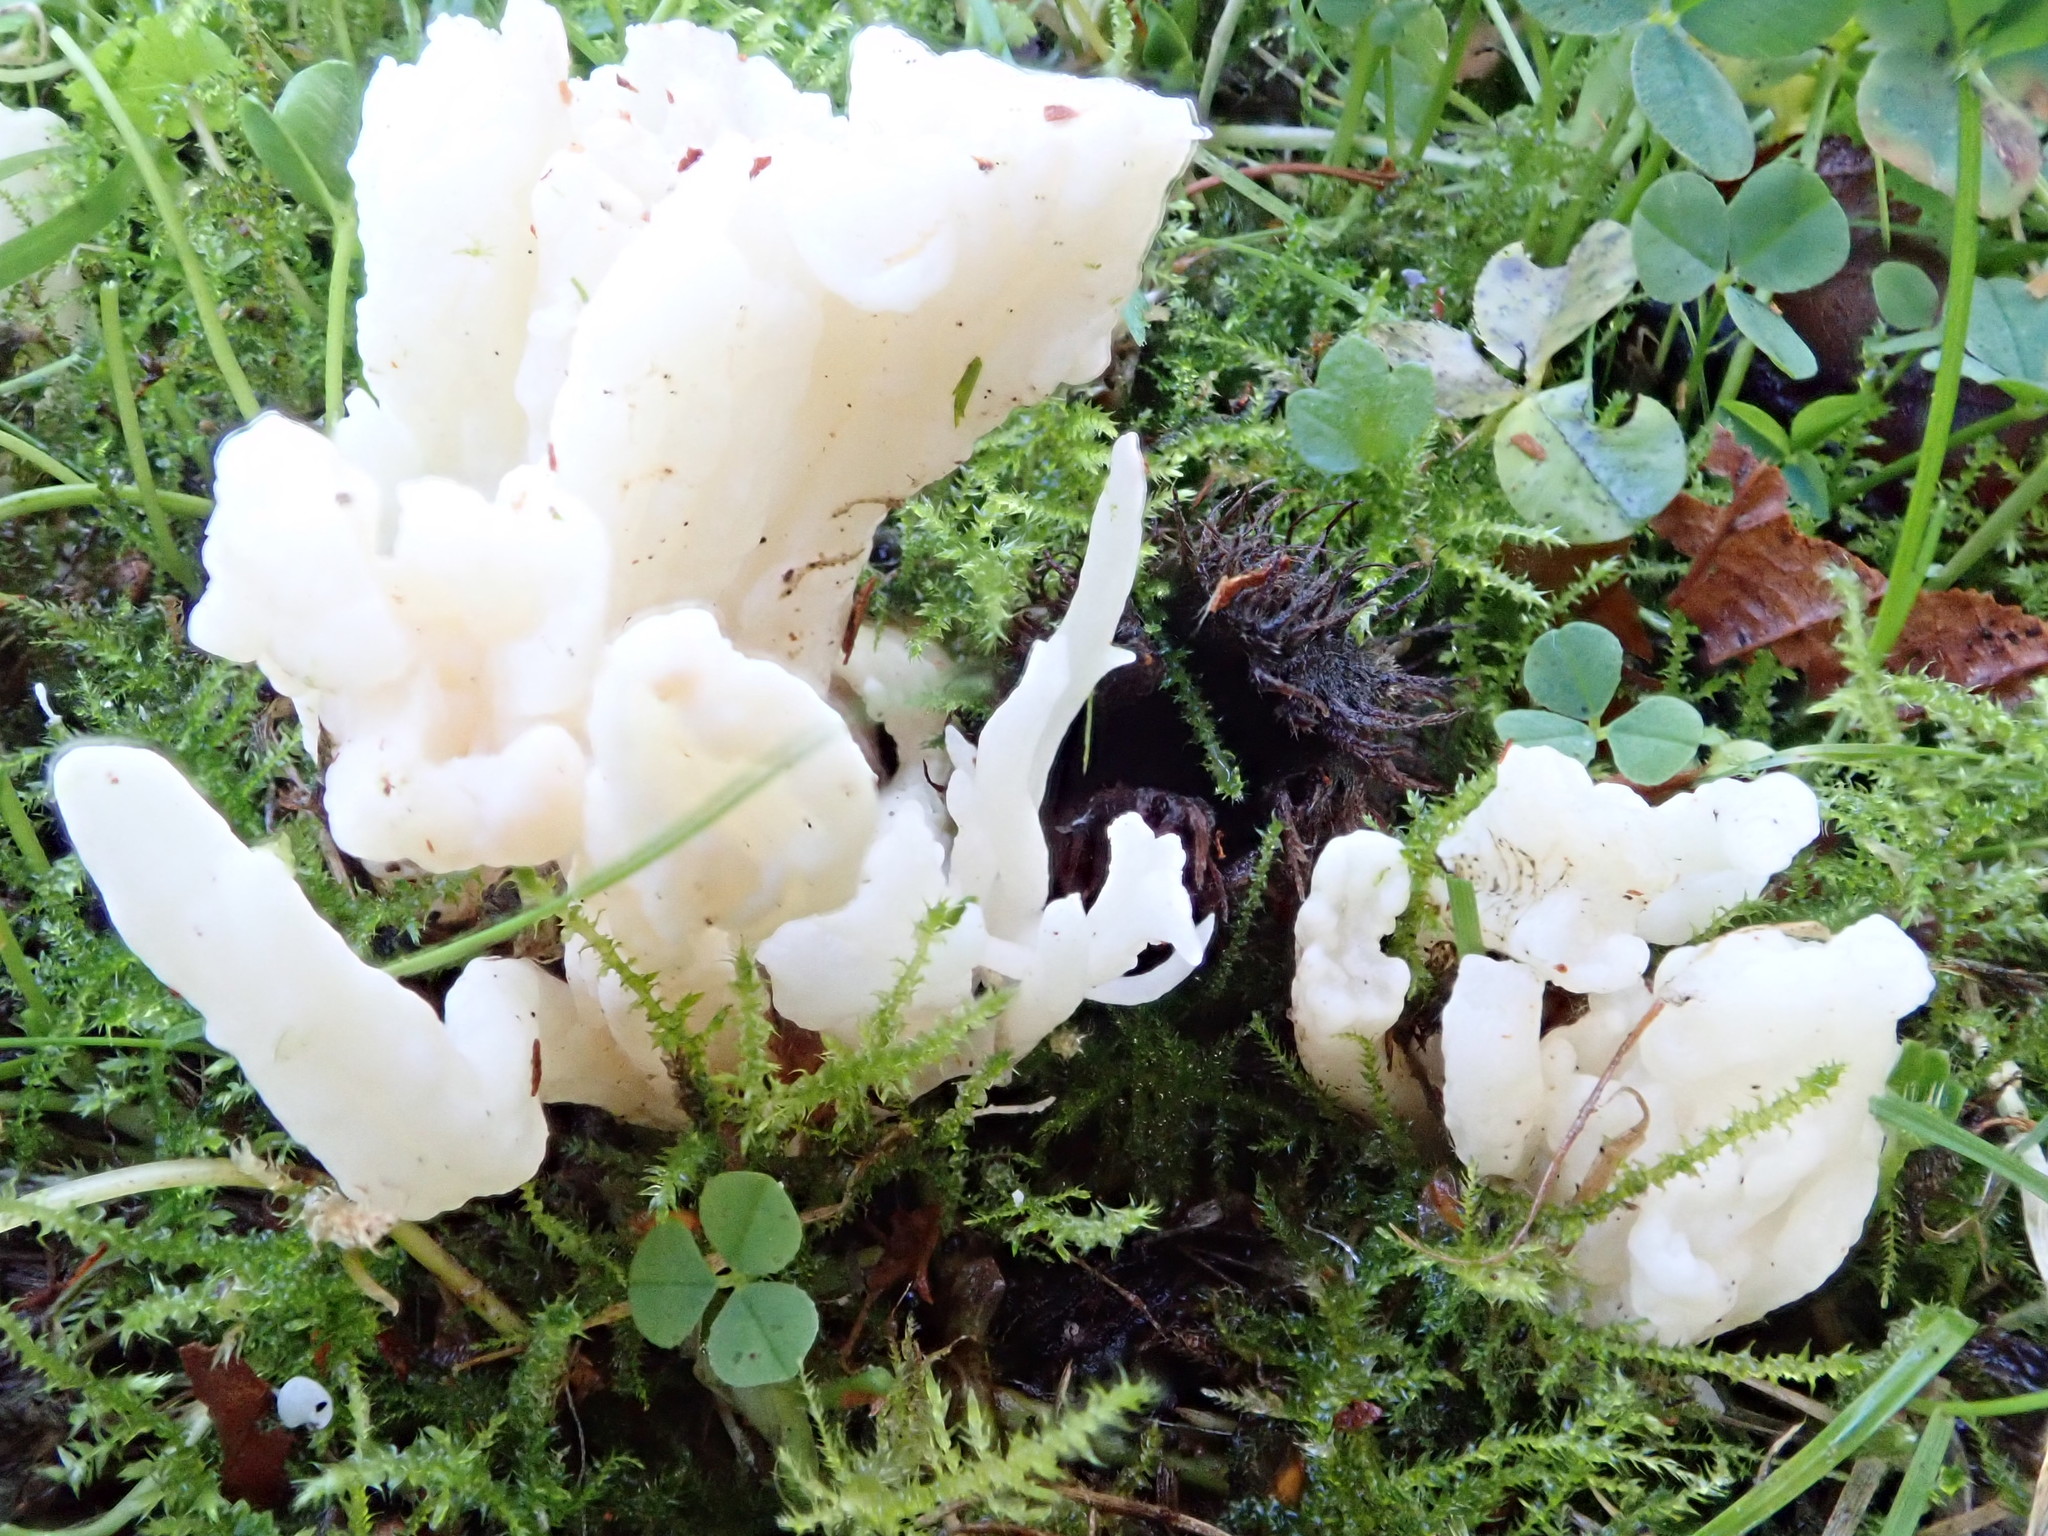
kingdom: Fungi
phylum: Basidiomycota
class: Agaricomycetes
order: Cantharellales
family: Hydnaceae
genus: Clavulina
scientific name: Clavulina rugosa
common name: Wrinkled club
